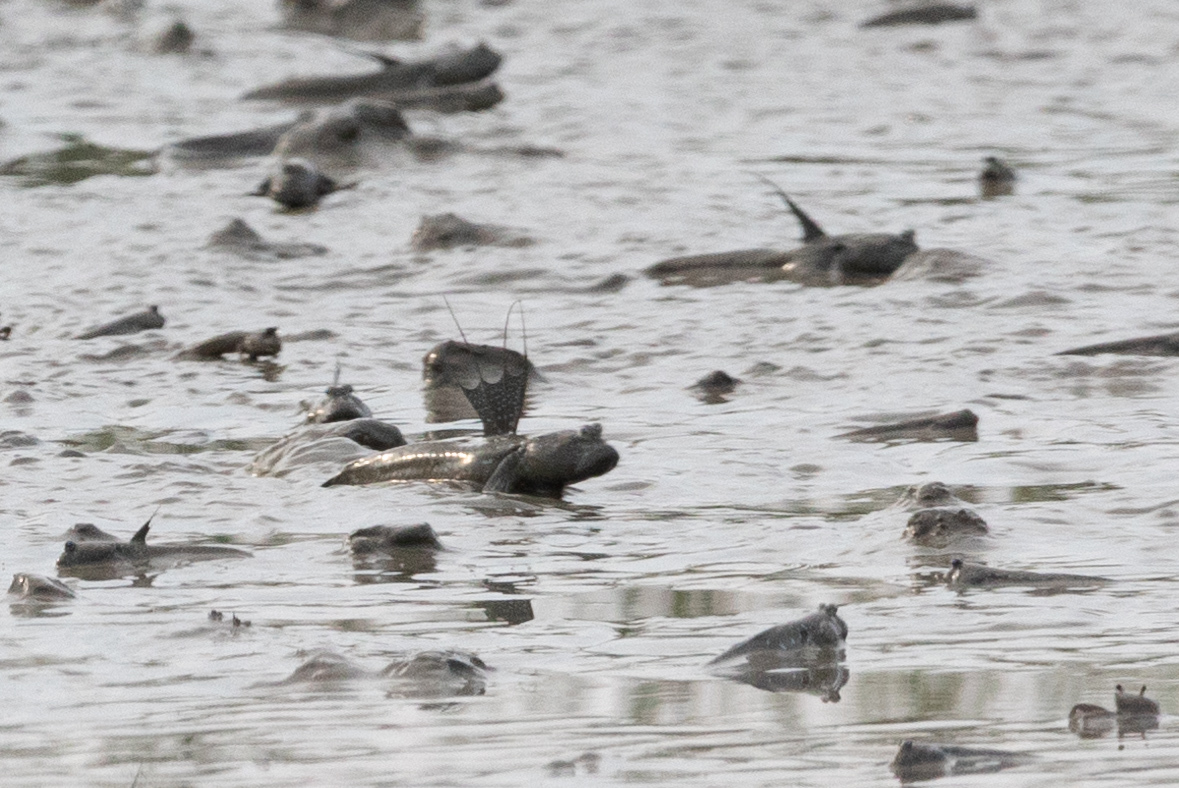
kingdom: Animalia
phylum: Chordata
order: Perciformes
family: Gobiidae
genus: Boleophthalmus
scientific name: Boleophthalmus pectinirostris
